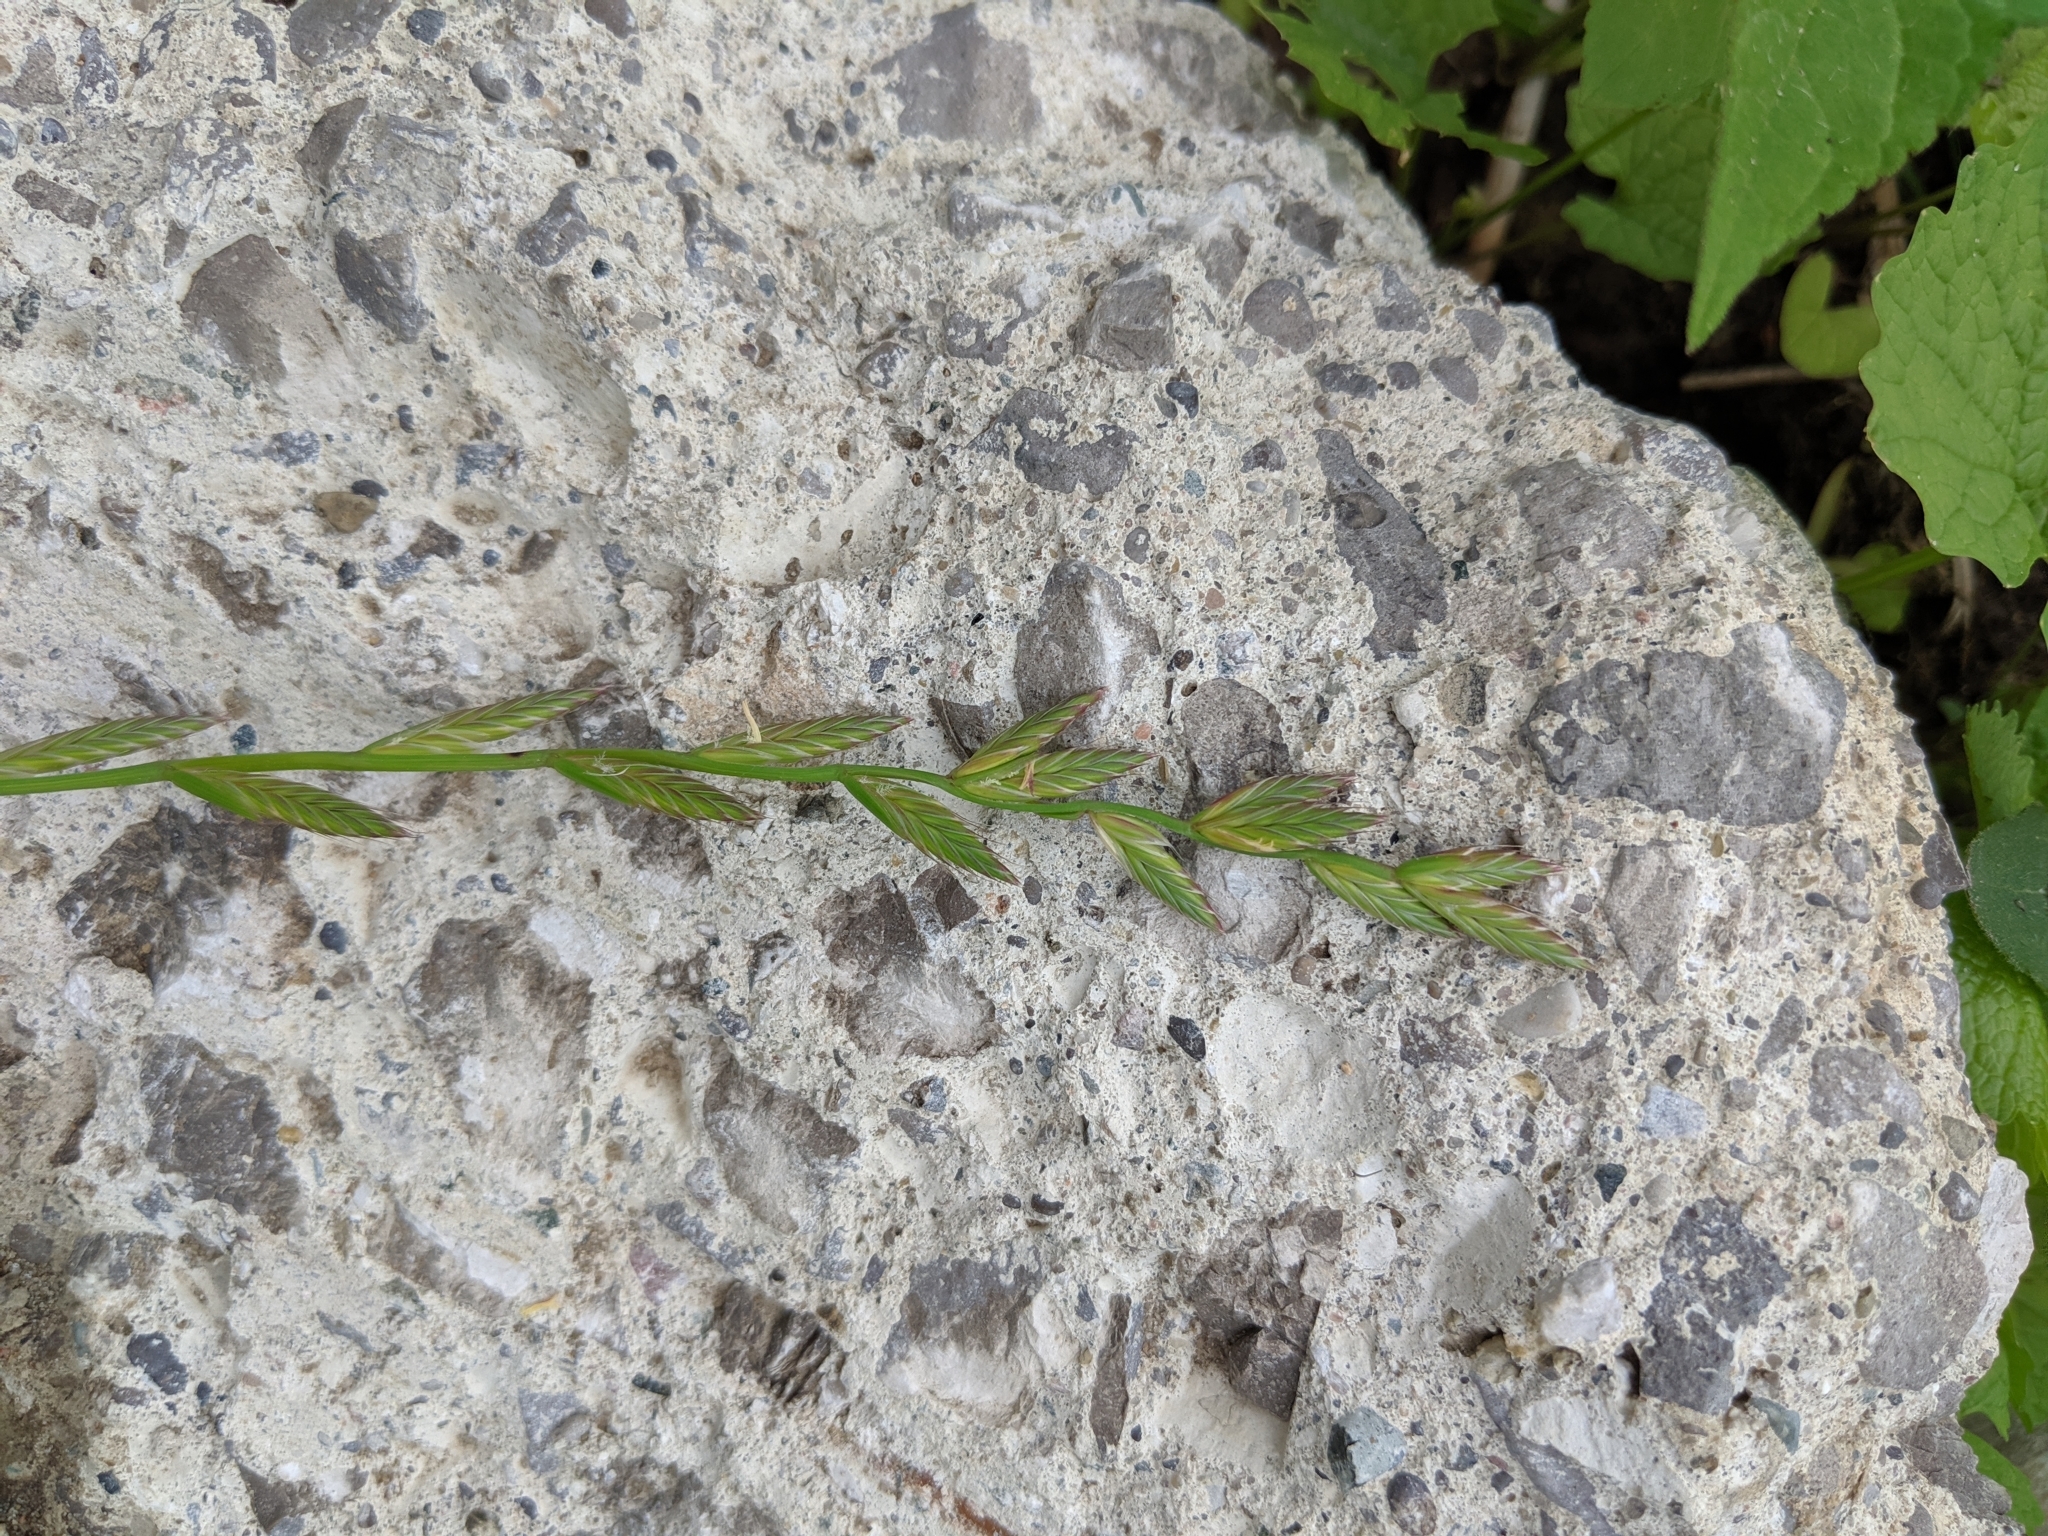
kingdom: Plantae
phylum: Tracheophyta
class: Liliopsida
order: Poales
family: Poaceae
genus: Lolium
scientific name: Lolium perenne
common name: Perennial ryegrass
